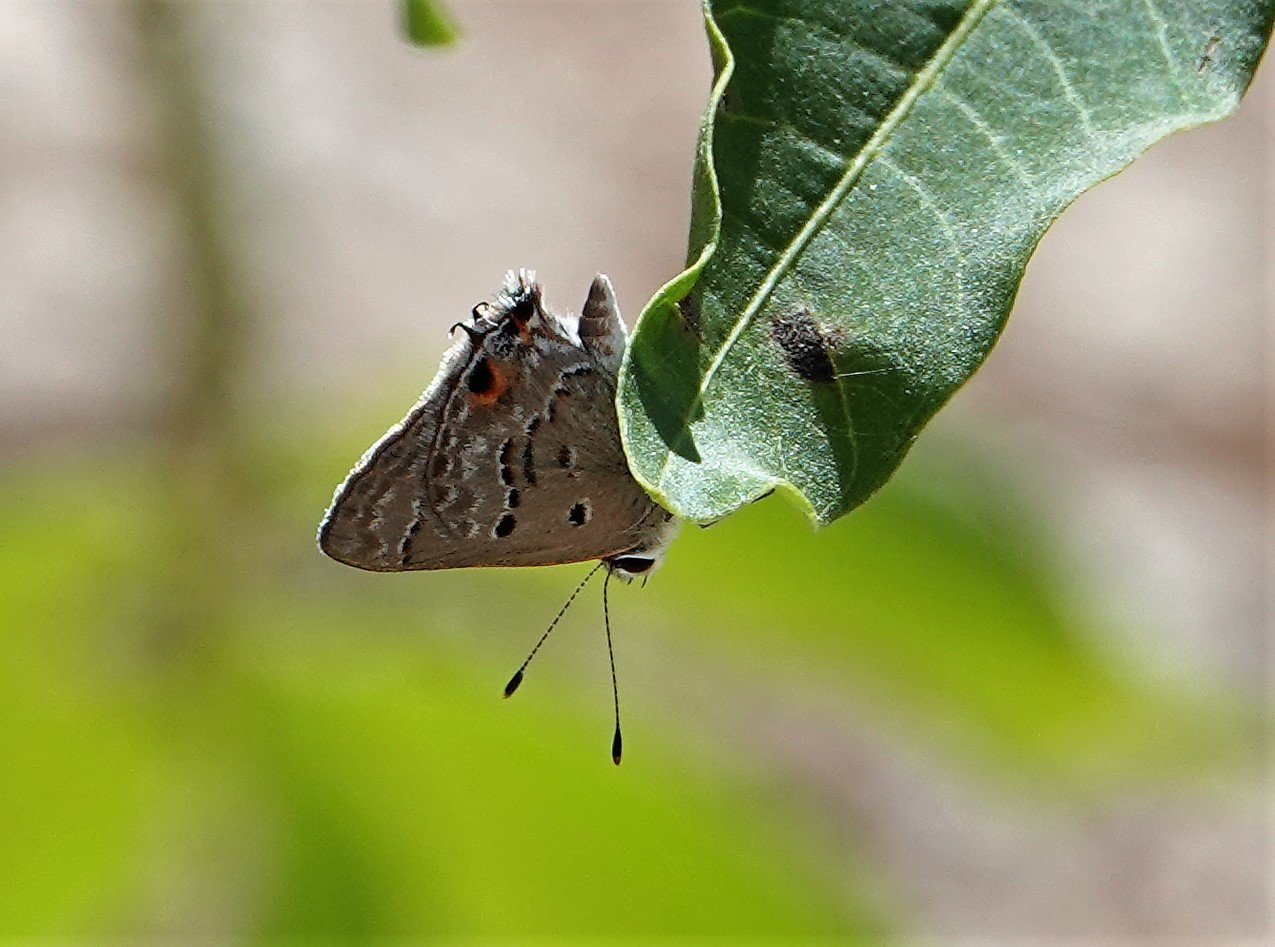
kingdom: Animalia
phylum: Arthropoda
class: Insecta
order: Lepidoptera
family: Lycaenidae
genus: Callicista
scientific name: Callicista columella
